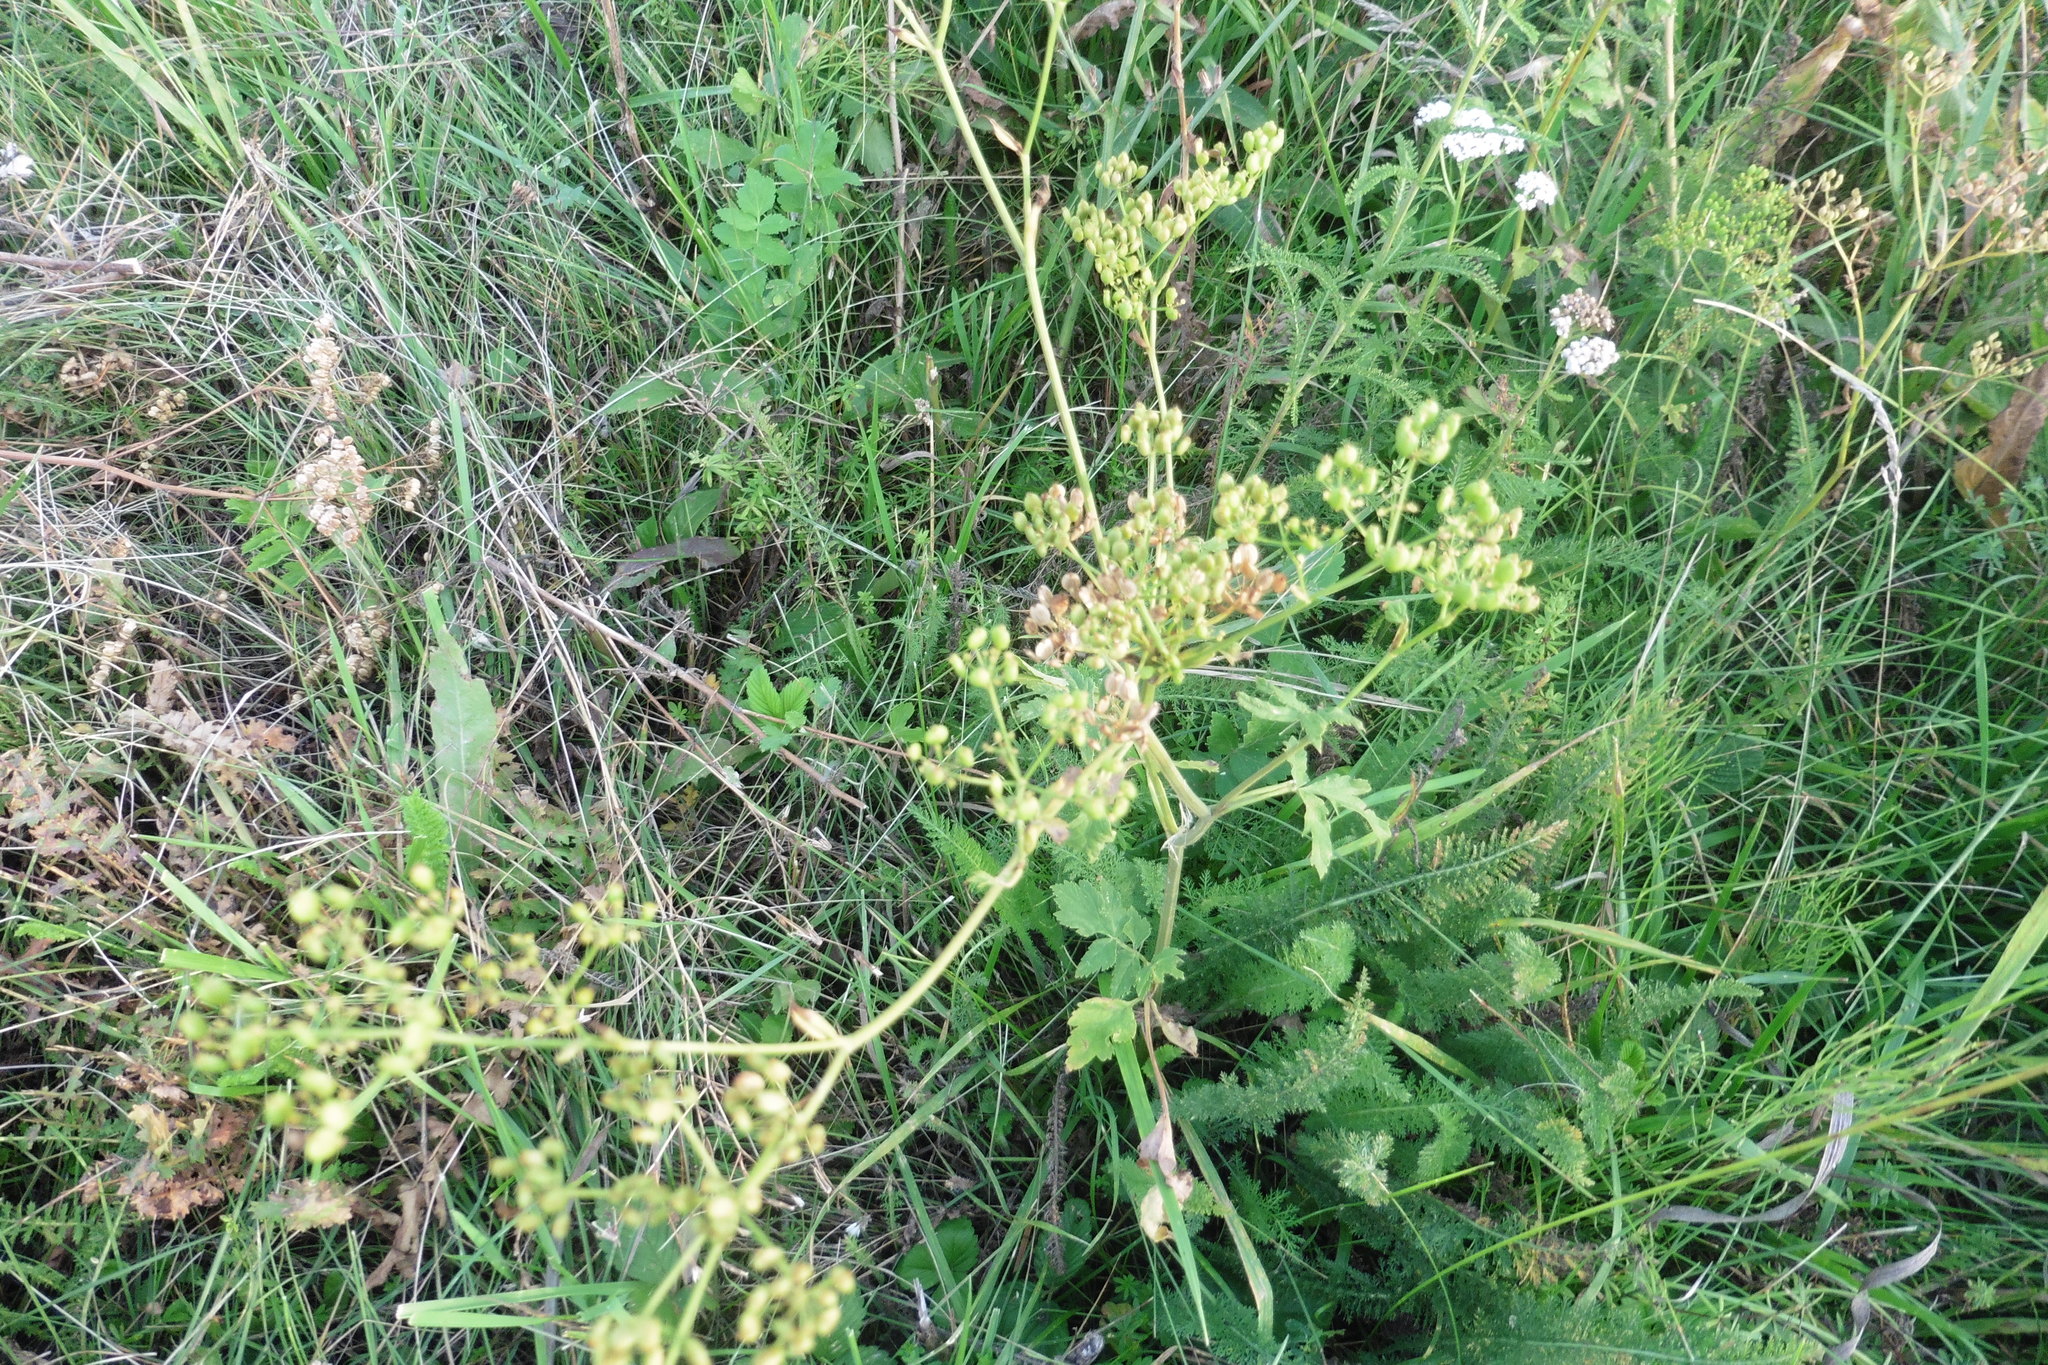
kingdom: Plantae
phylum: Tracheophyta
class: Magnoliopsida
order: Apiales
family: Apiaceae
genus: Pastinaca
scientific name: Pastinaca sativa
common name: Wild parsnip
